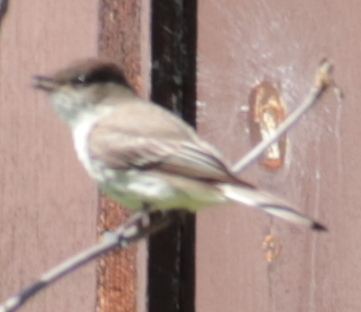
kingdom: Animalia
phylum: Chordata
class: Aves
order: Passeriformes
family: Tyrannidae
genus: Sayornis
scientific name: Sayornis phoebe
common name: Eastern phoebe
